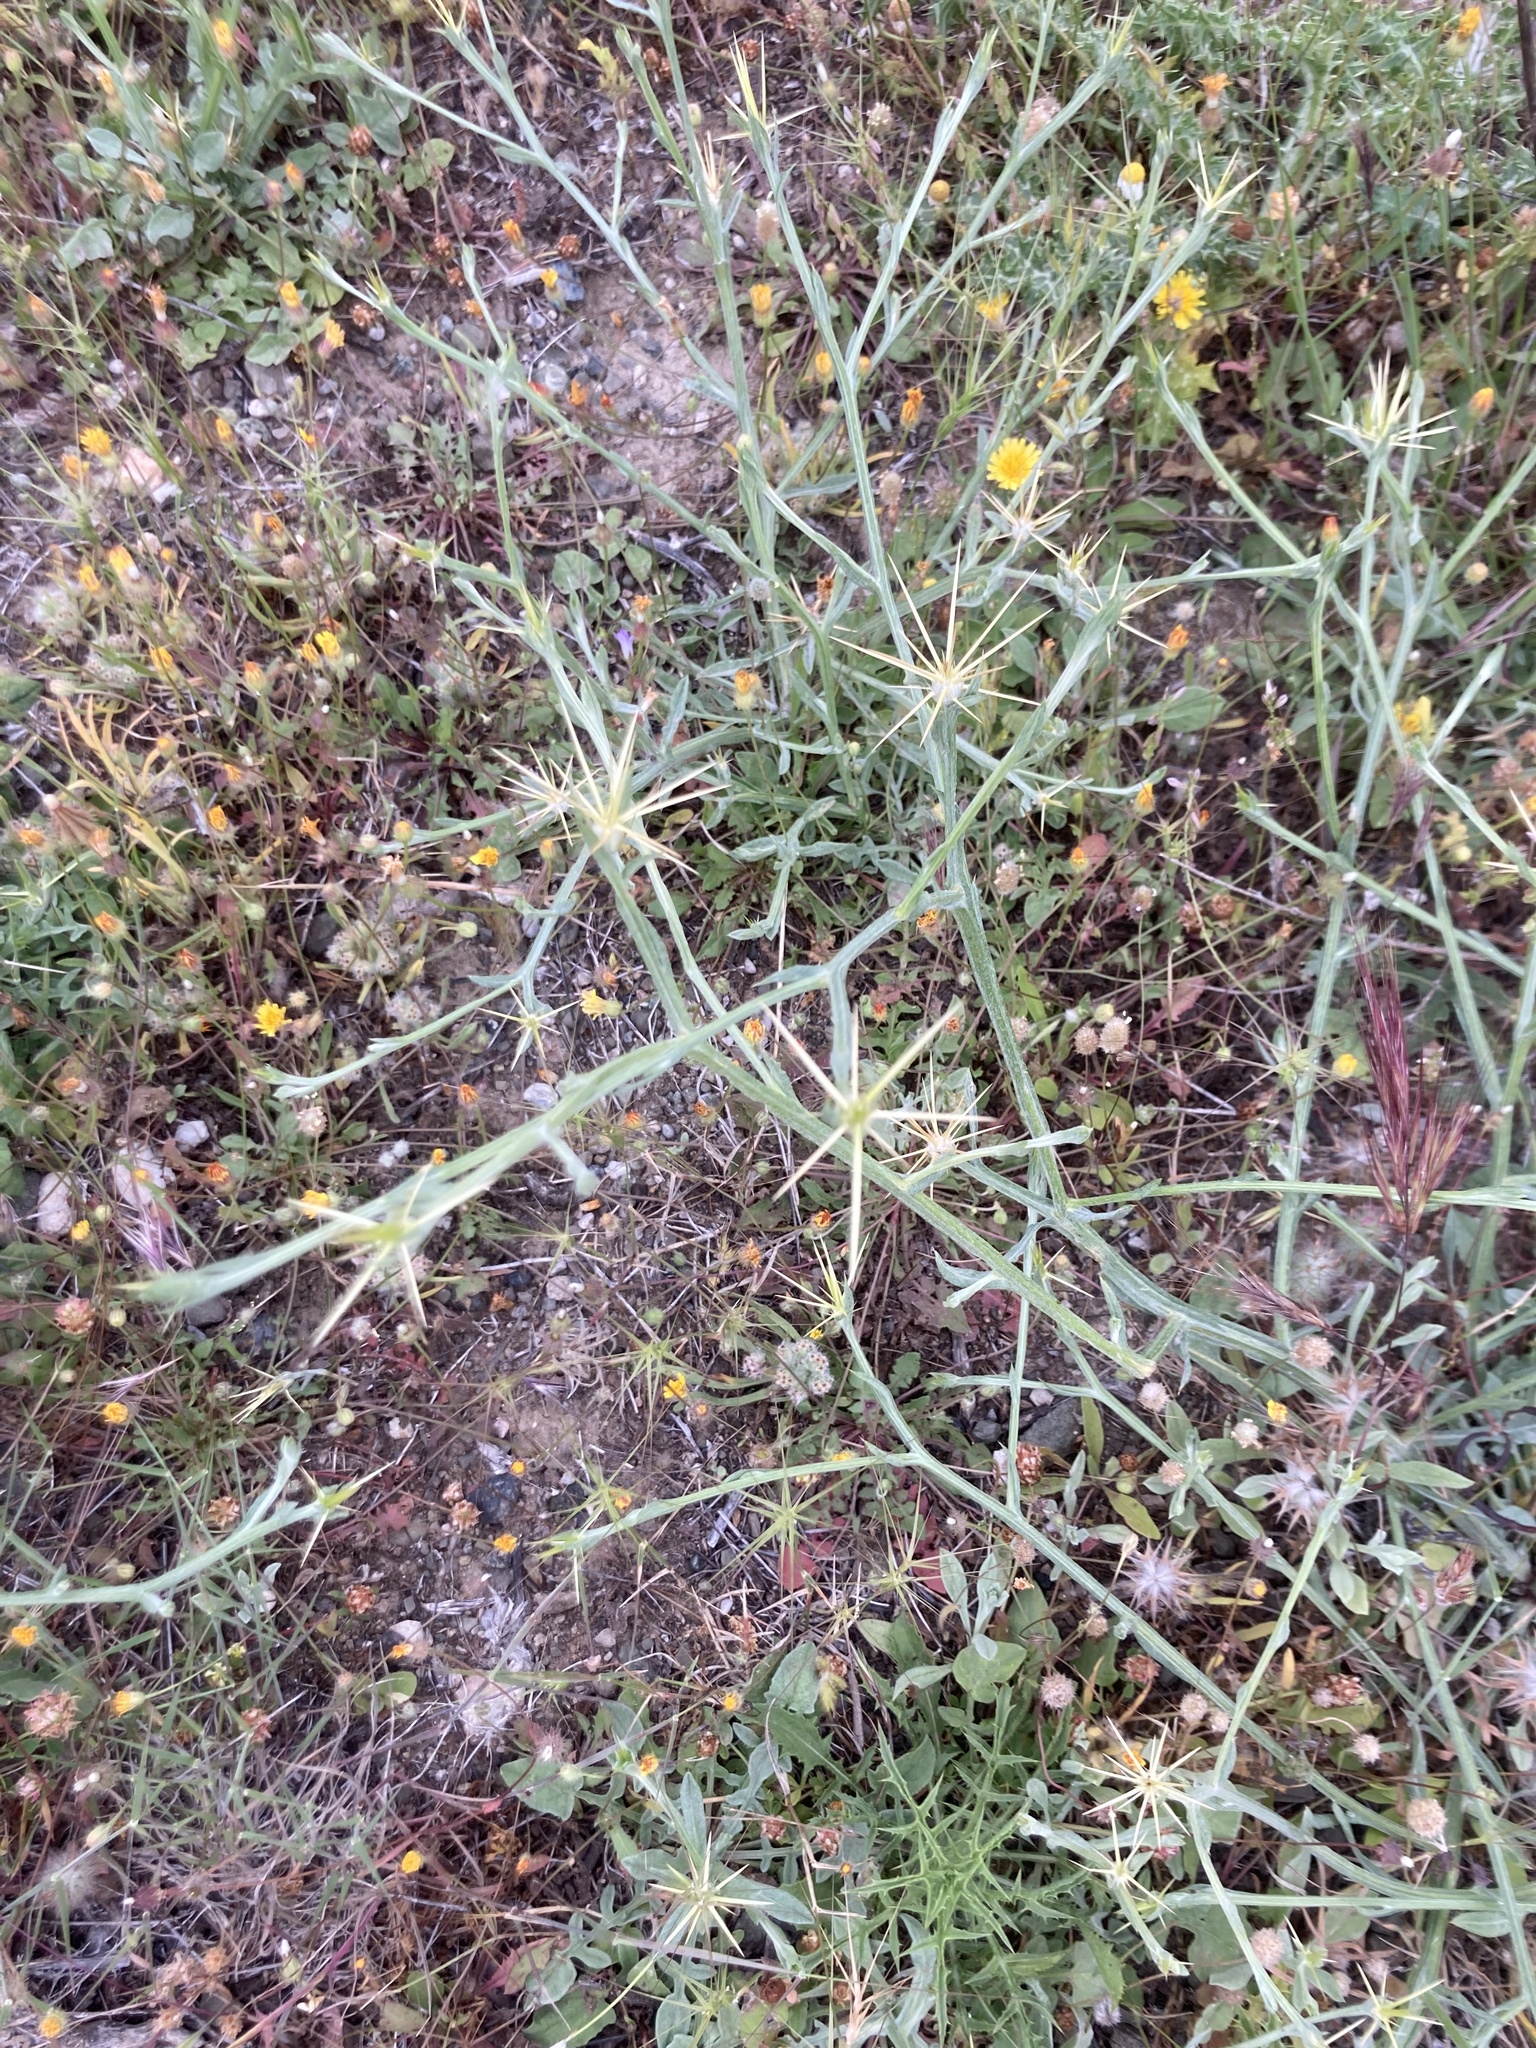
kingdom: Plantae
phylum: Tracheophyta
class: Magnoliopsida
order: Asterales
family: Asteraceae
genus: Centaurea
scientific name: Centaurea solstitialis
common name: Yellow star-thistle
